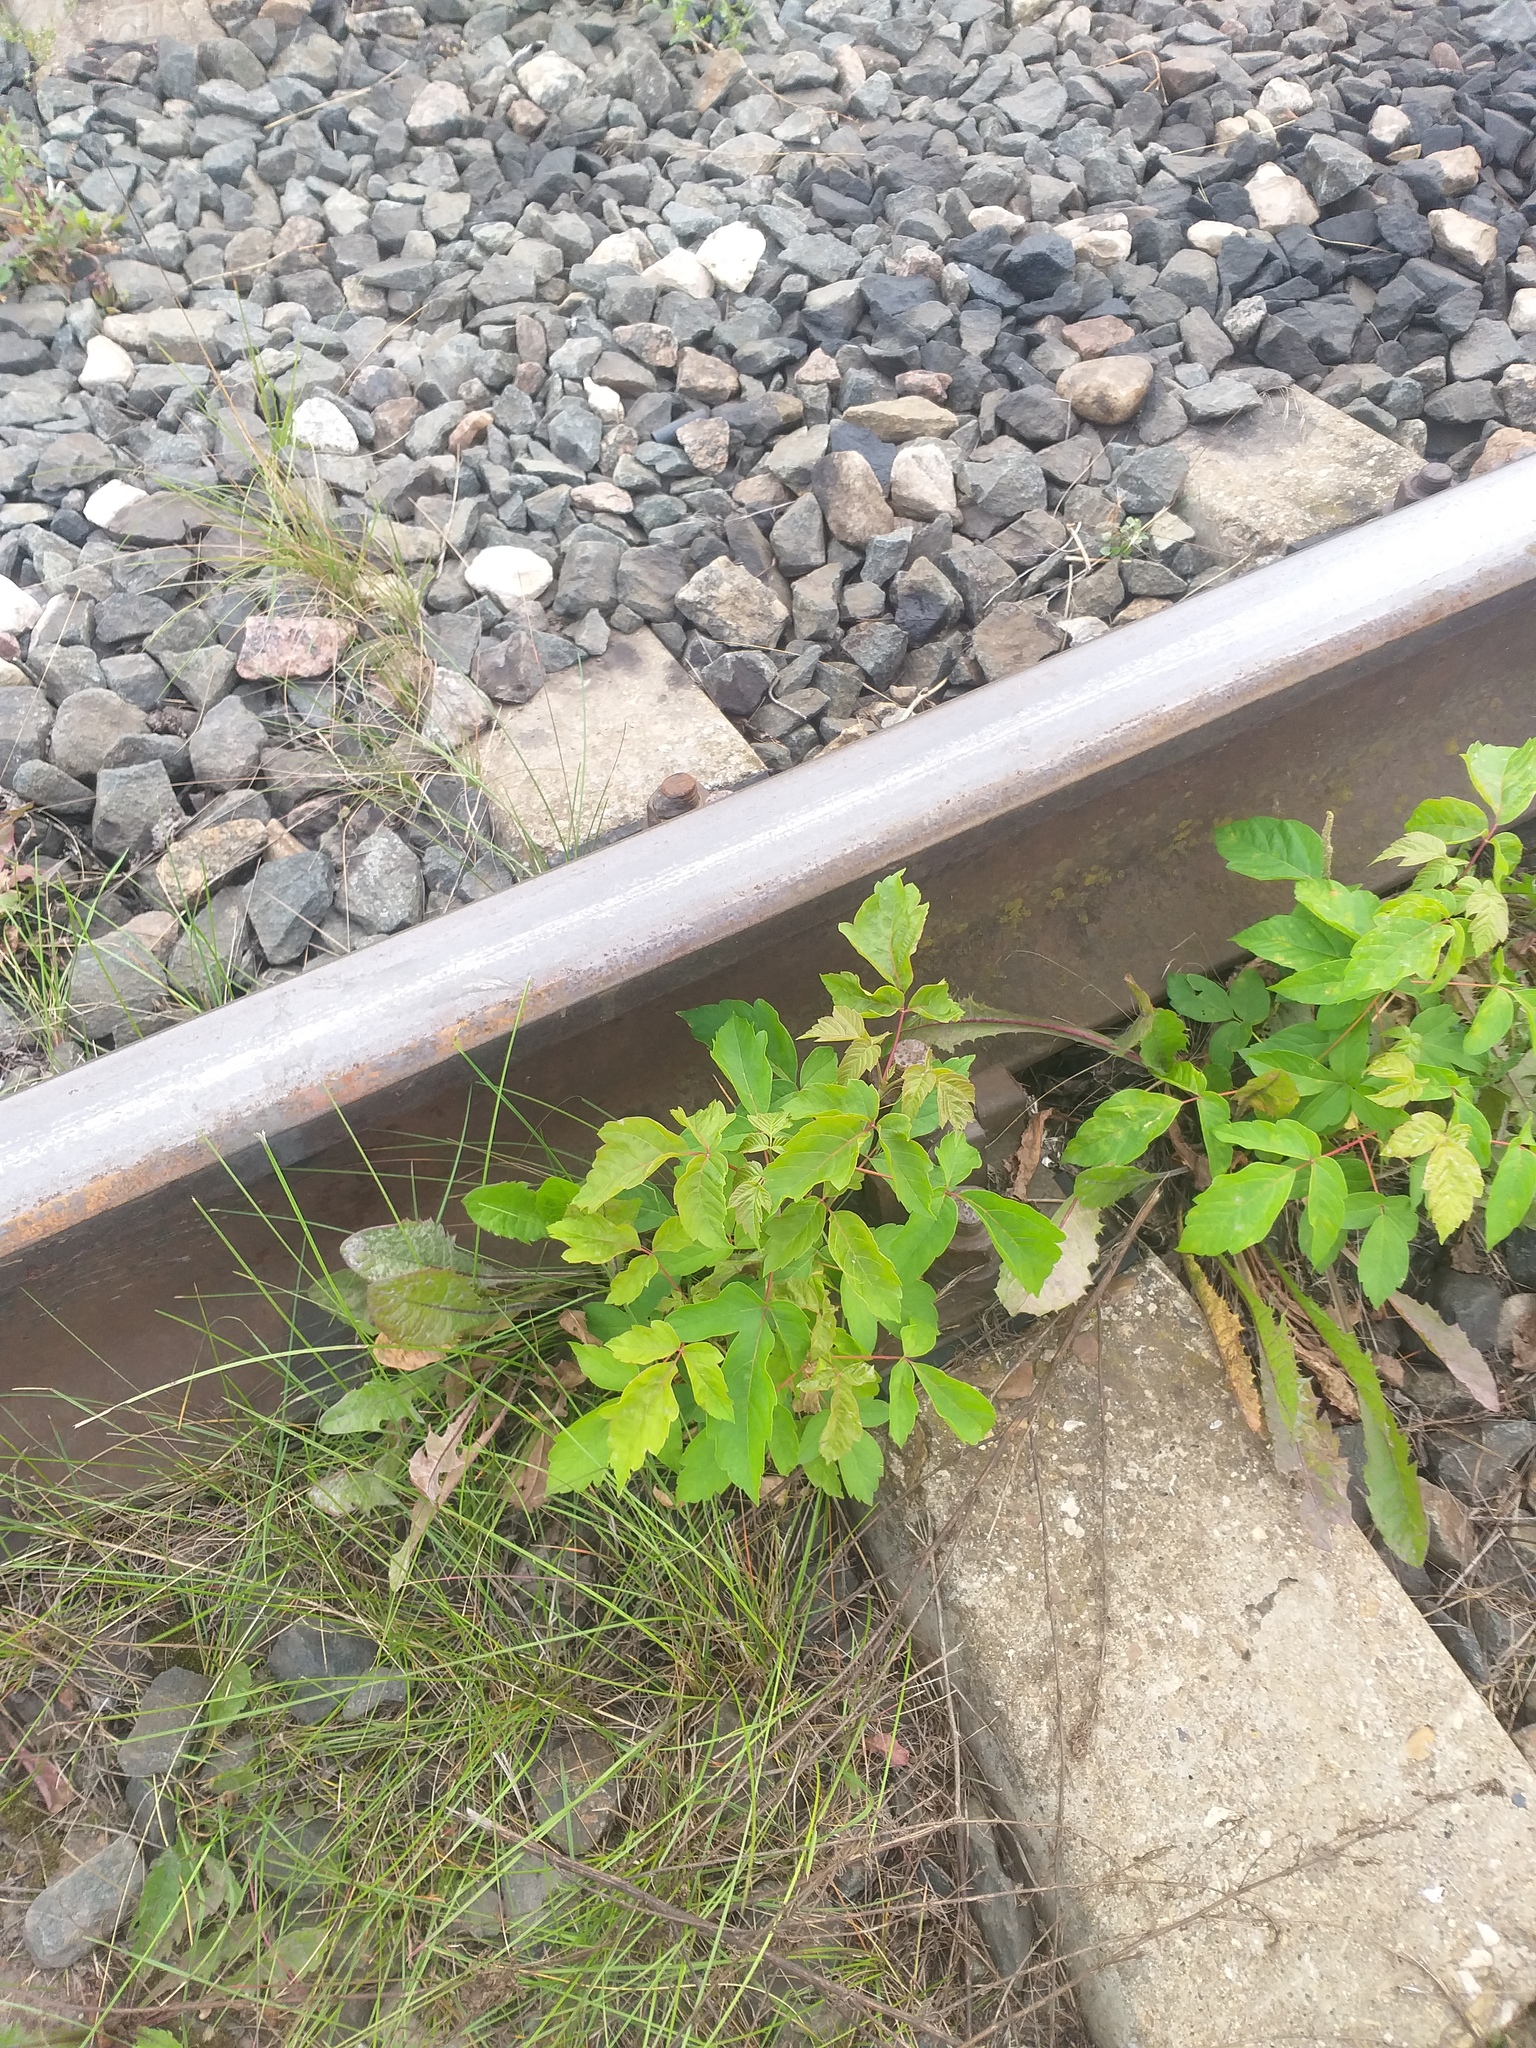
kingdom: Plantae
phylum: Tracheophyta
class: Magnoliopsida
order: Sapindales
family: Sapindaceae
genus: Acer
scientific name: Acer negundo
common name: Ashleaf maple
